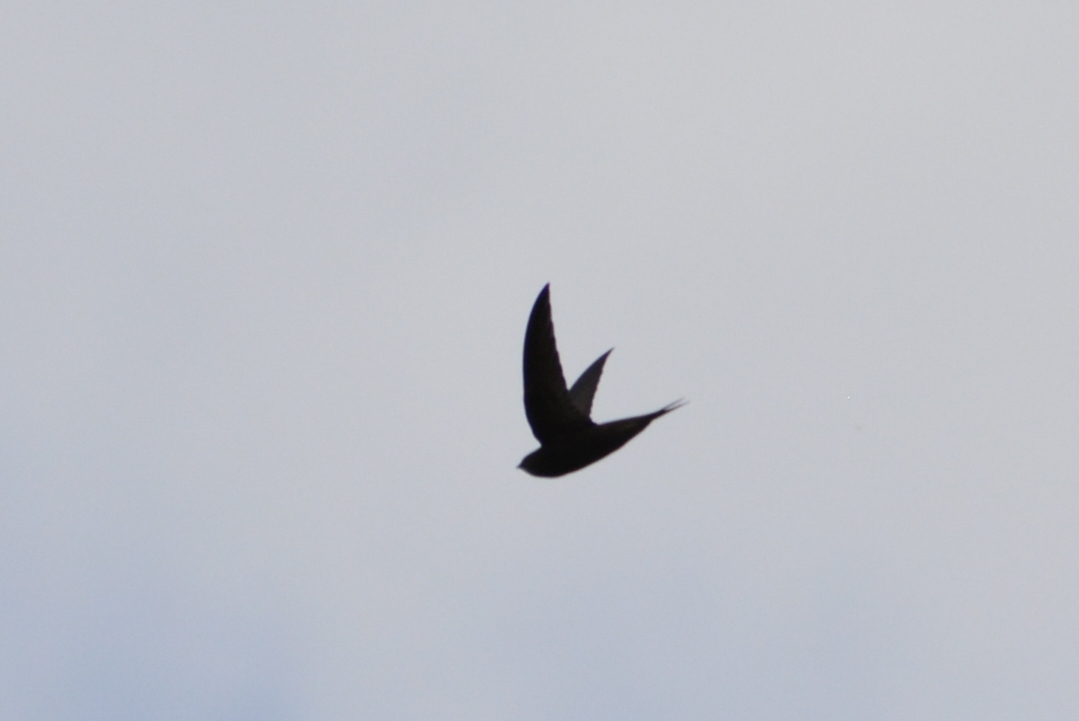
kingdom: Animalia
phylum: Chordata
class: Aves
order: Apodiformes
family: Apodidae
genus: Apus
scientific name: Apus apus
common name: Common swift
